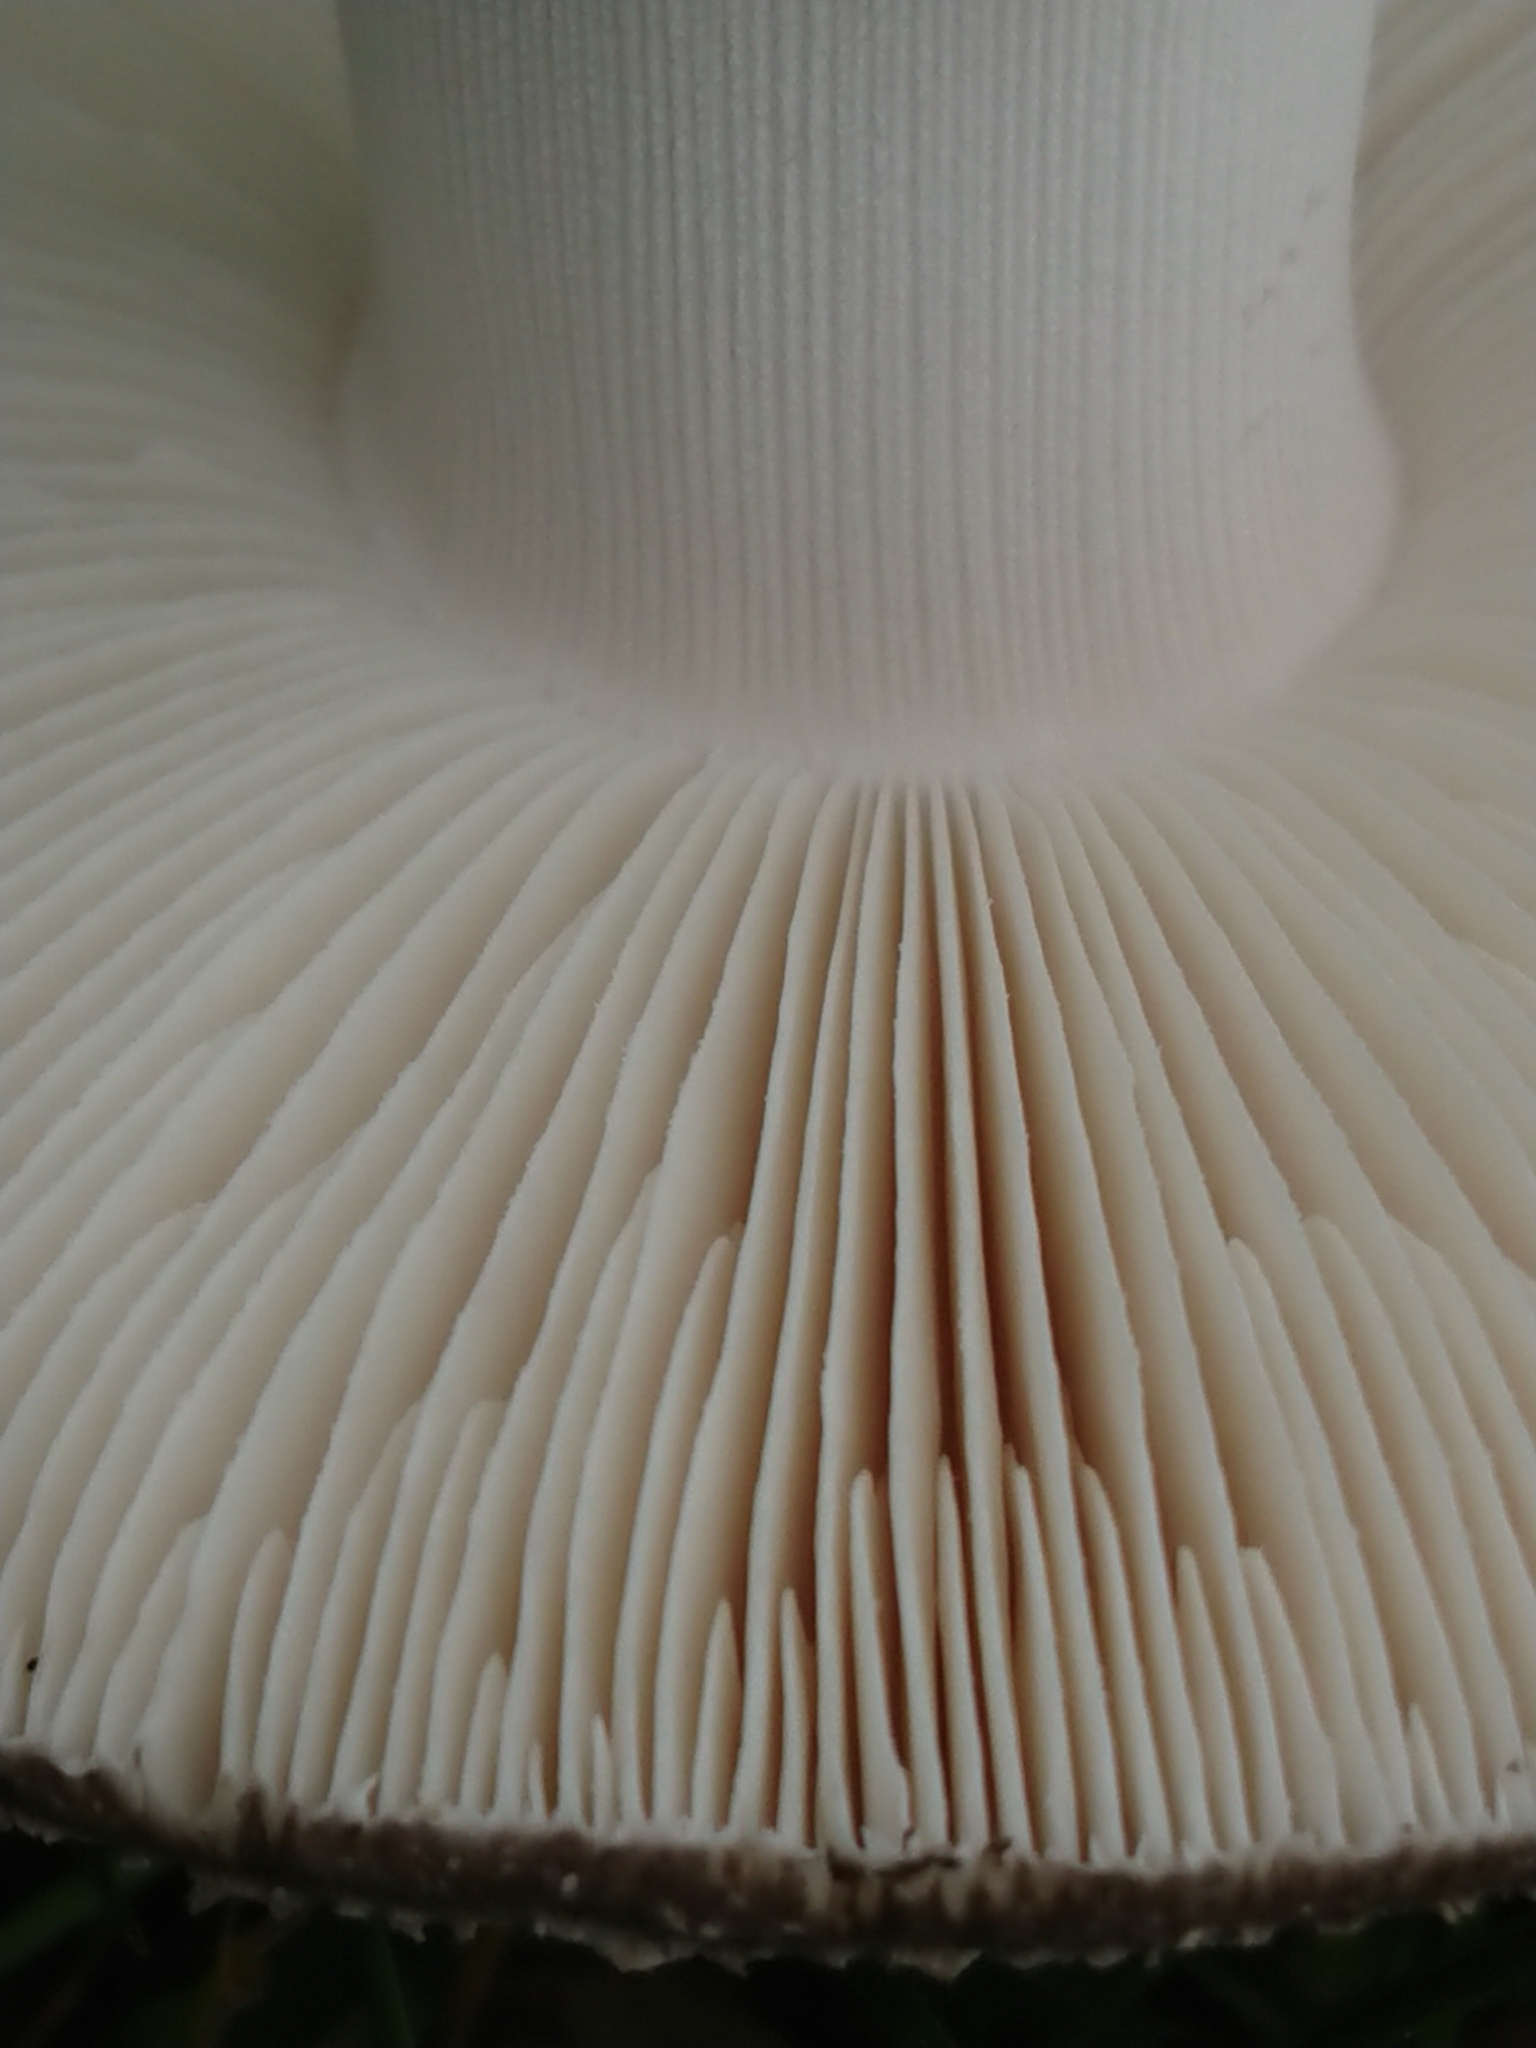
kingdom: Fungi
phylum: Basidiomycota
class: Agaricomycetes
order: Agaricales
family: Amanitaceae
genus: Amanita
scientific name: Amanita excelsa
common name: European false blusher
